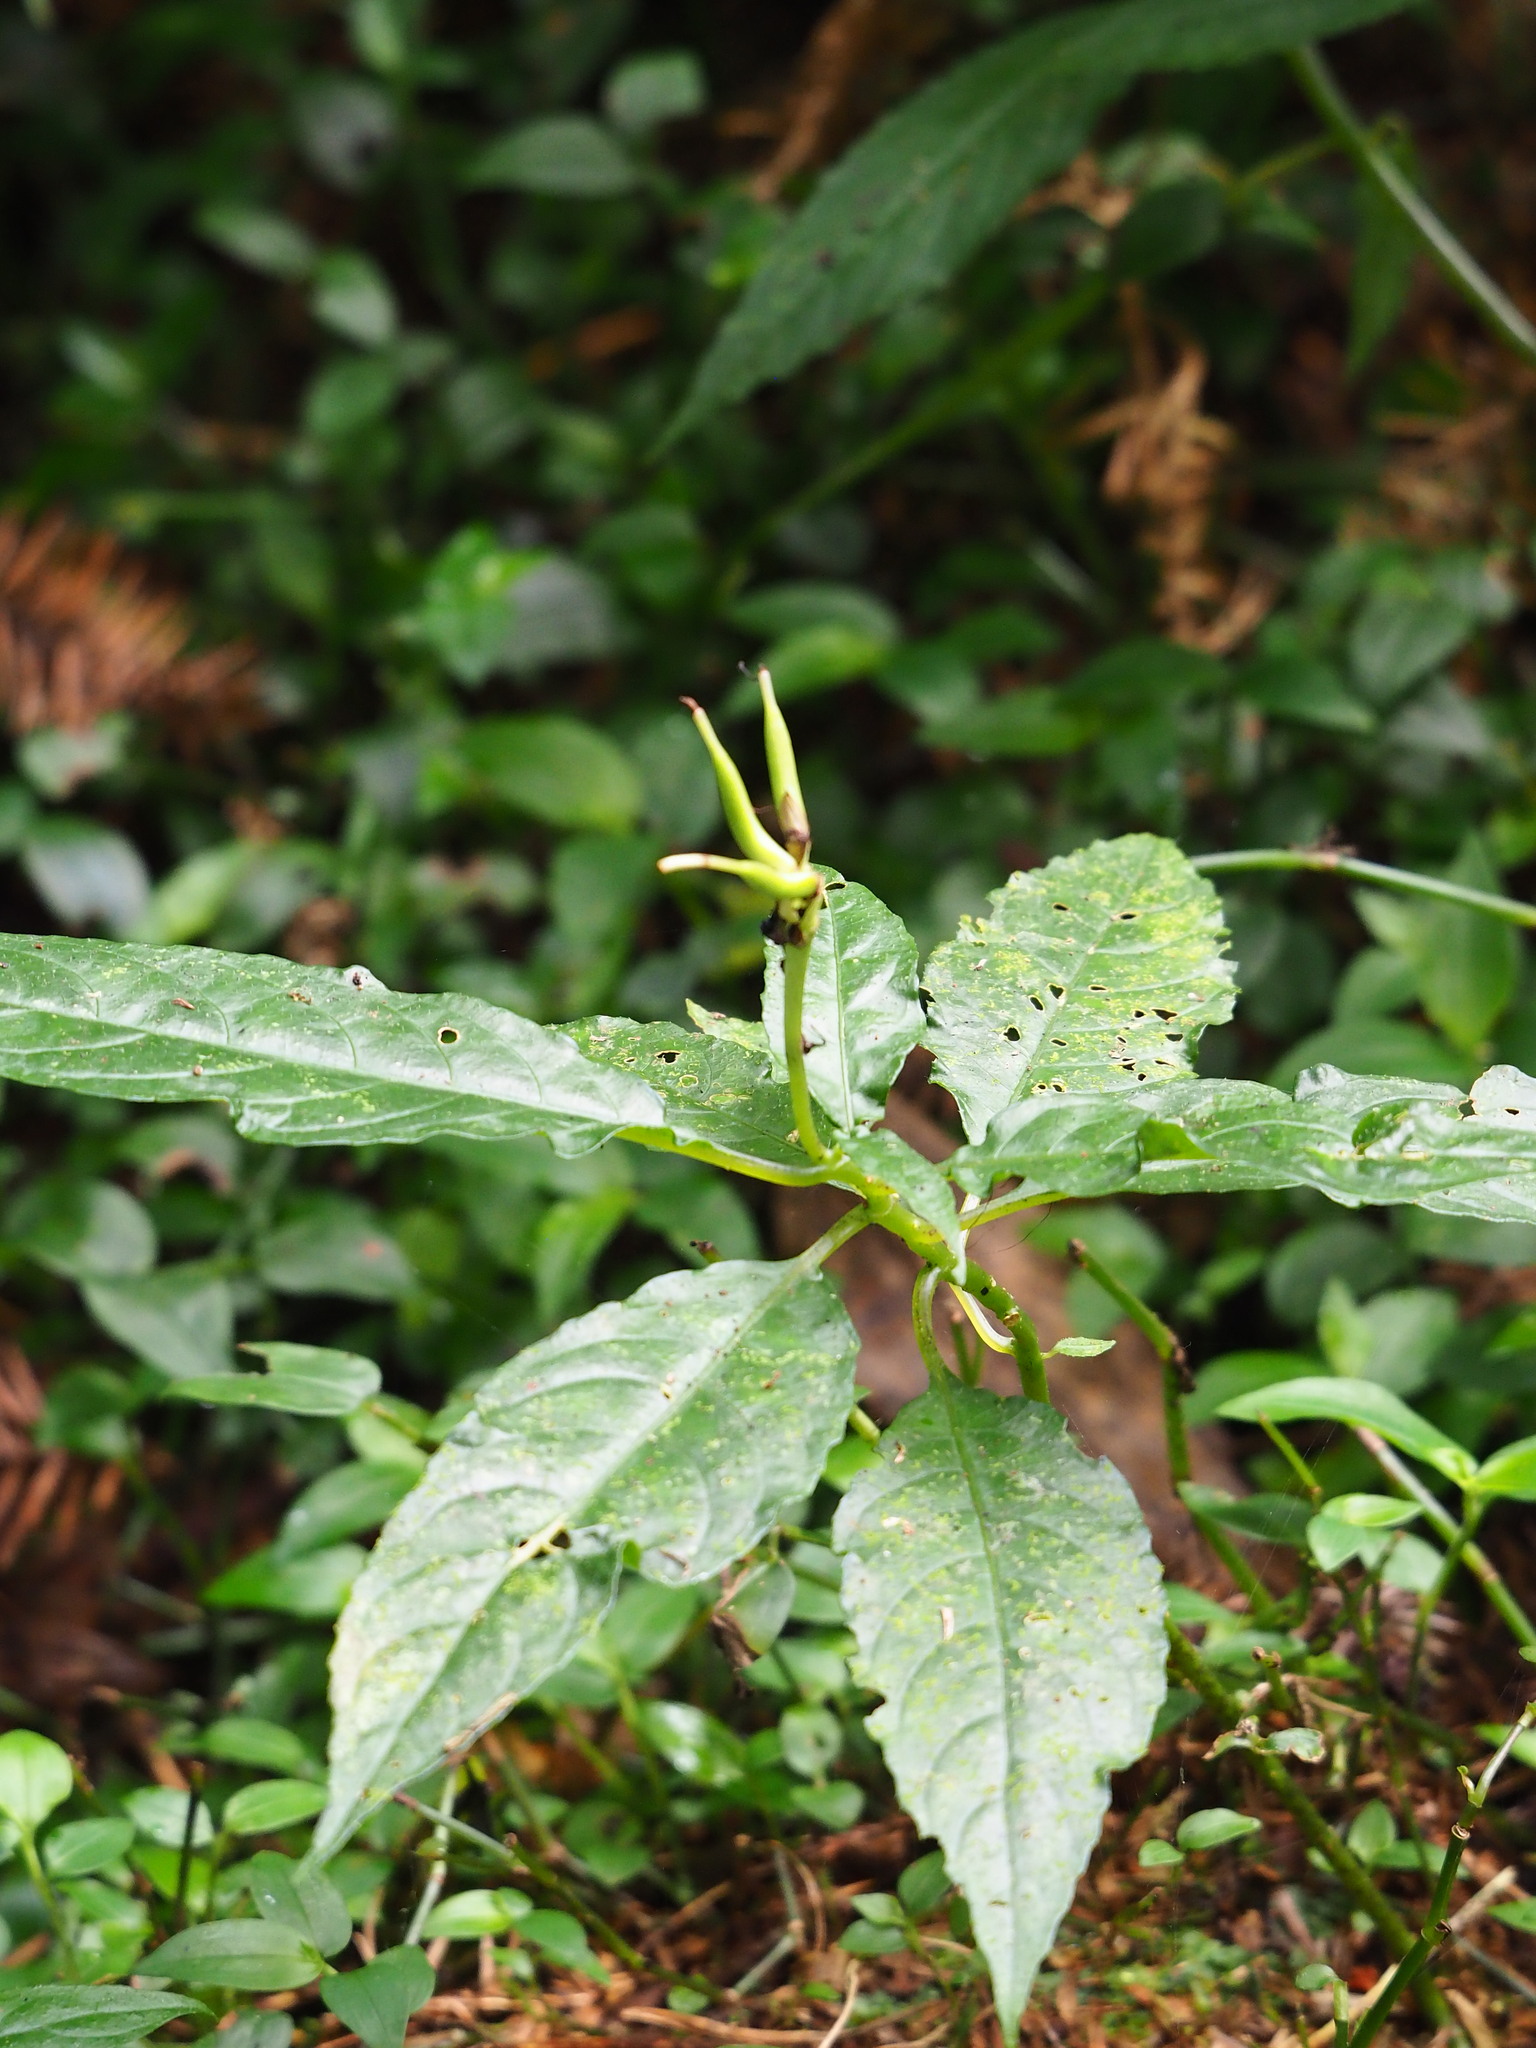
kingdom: Plantae
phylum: Tracheophyta
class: Magnoliopsida
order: Lamiales
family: Gesneriaceae
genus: Hemiboea
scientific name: Hemiboea bicornuta
